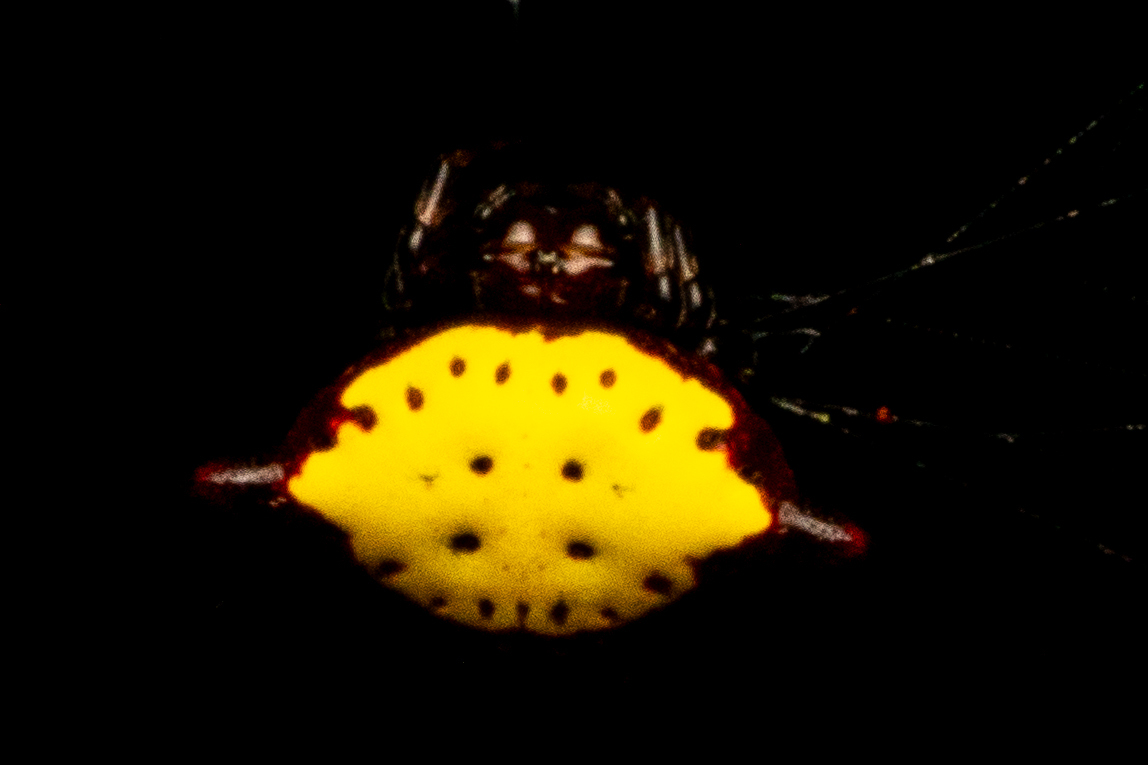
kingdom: Animalia
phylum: Arthropoda
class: Arachnida
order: Araneae
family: Araneidae
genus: Gasteracantha
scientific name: Gasteracantha cancriformis
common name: Orb weavers
